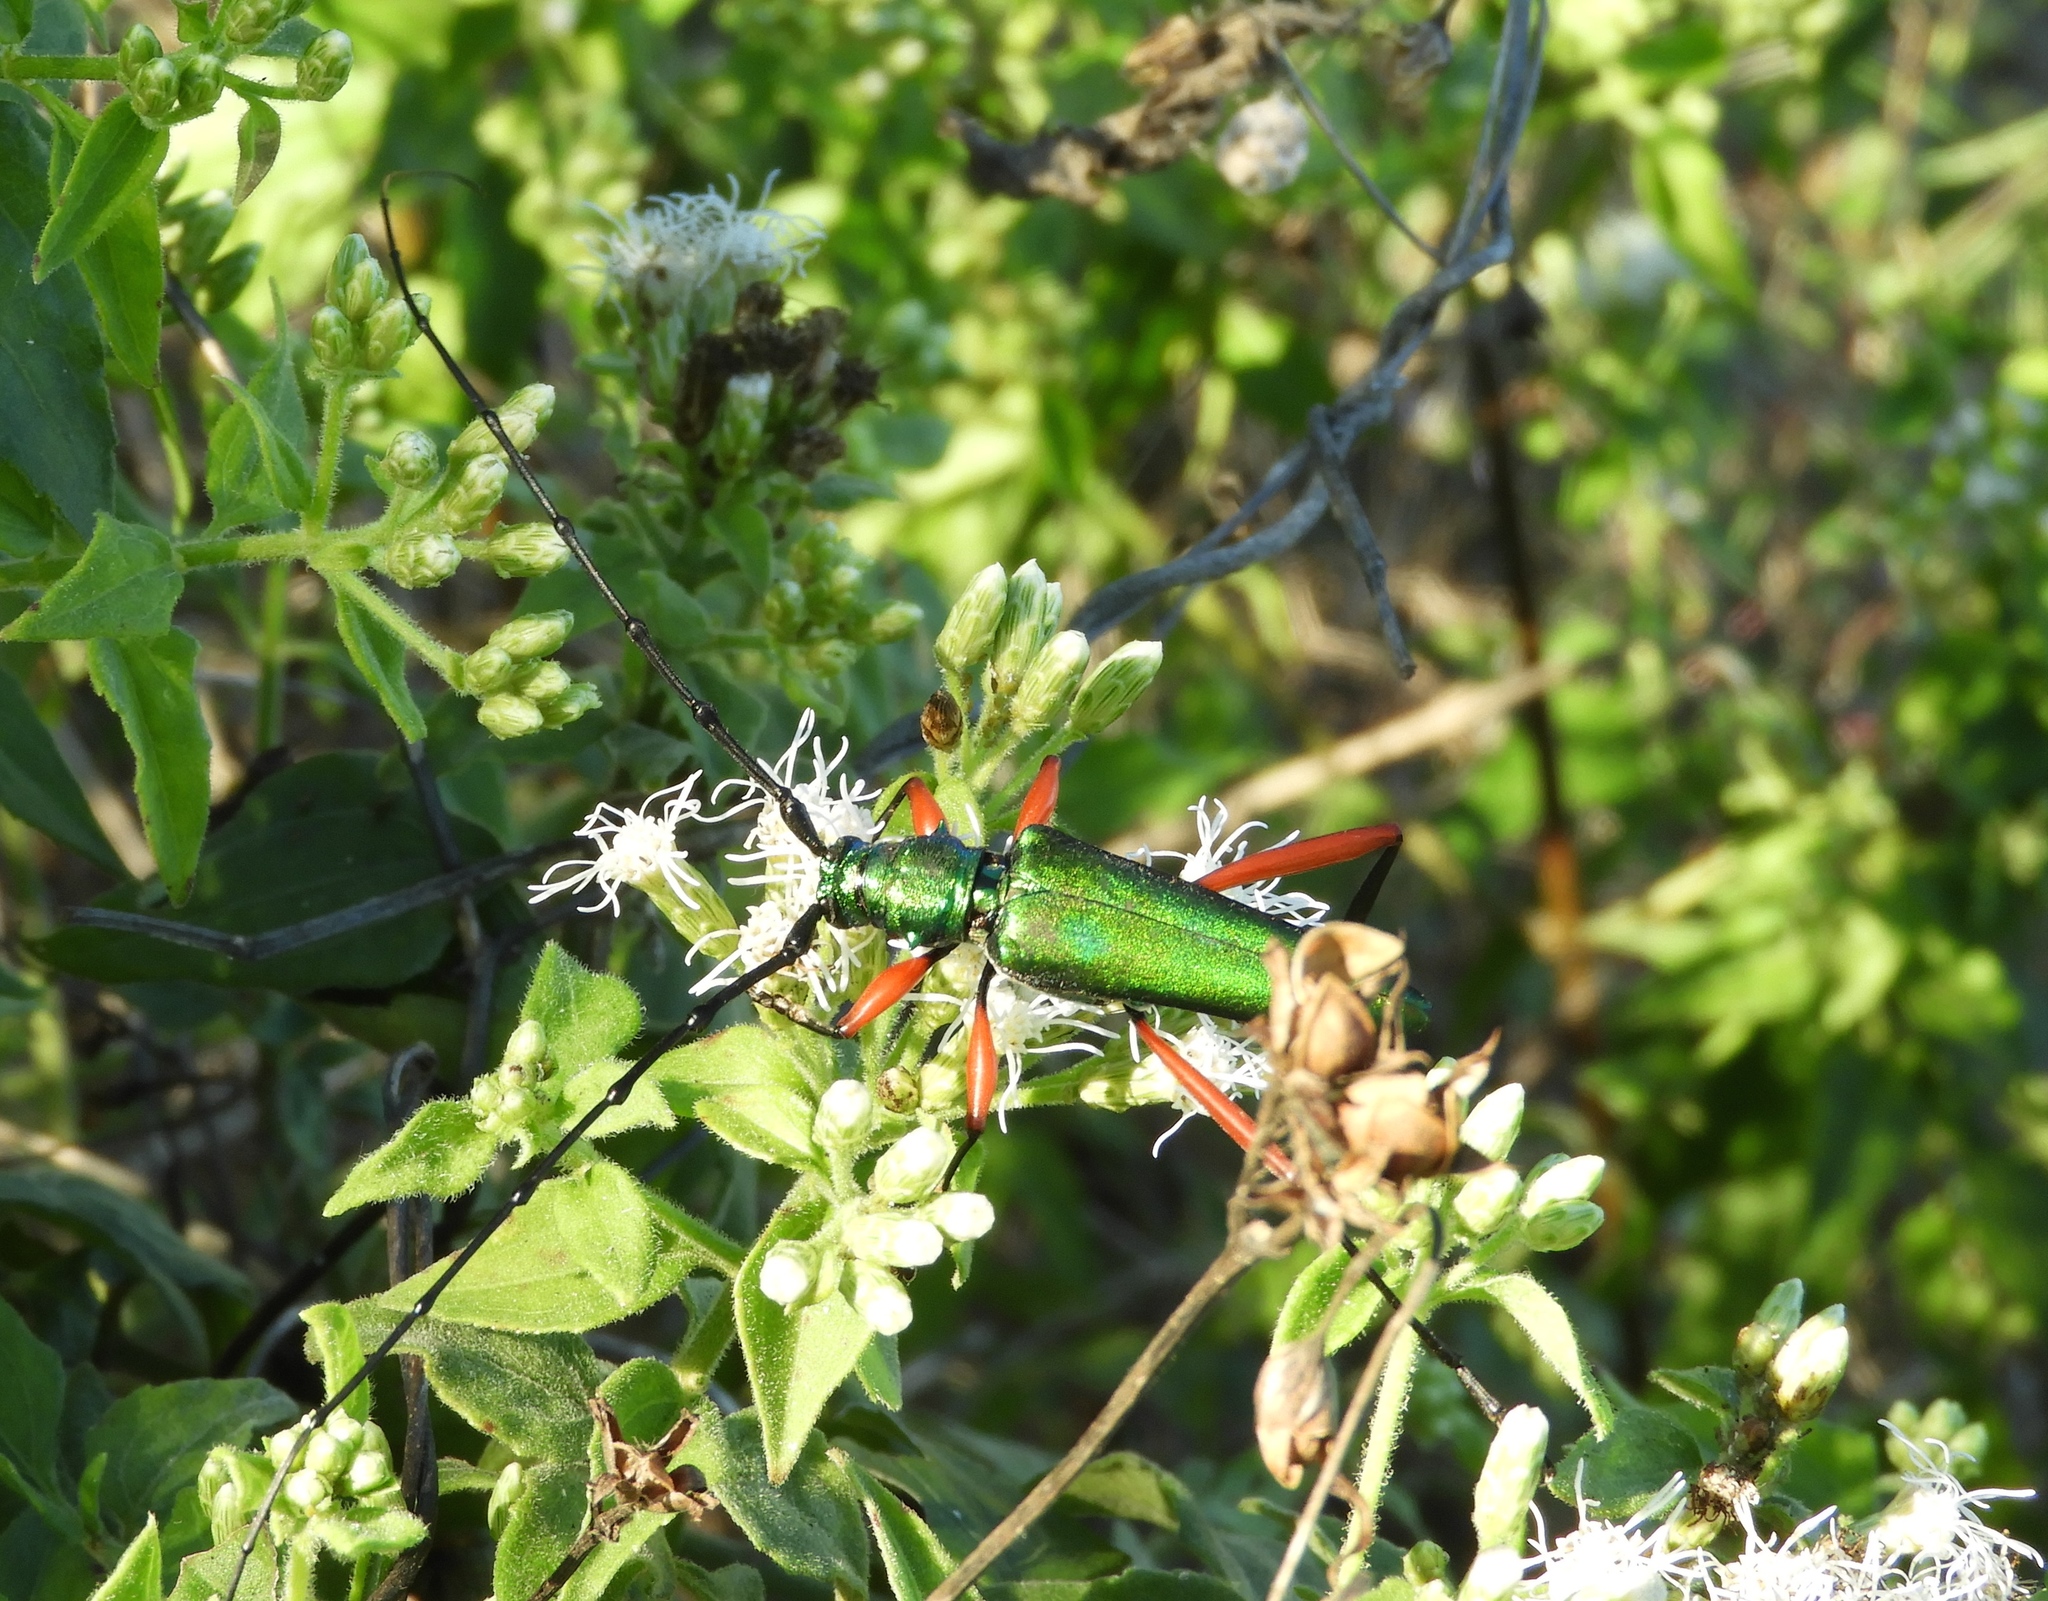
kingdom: Animalia
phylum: Arthropoda
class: Insecta
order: Coleoptera
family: Cerambycidae
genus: Plinthocoelium
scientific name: Plinthocoelium chilensis
